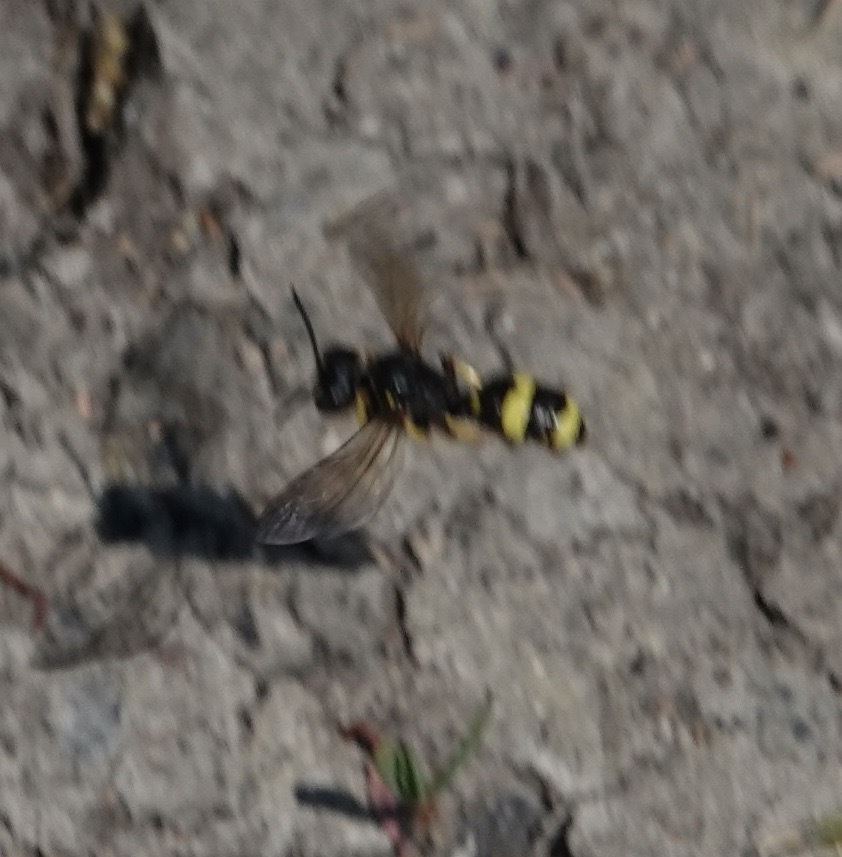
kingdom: Animalia
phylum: Arthropoda
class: Insecta
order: Hymenoptera
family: Crabronidae
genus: Cerceris
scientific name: Cerceris rybyensis
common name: Ornate tailed digger wasp
